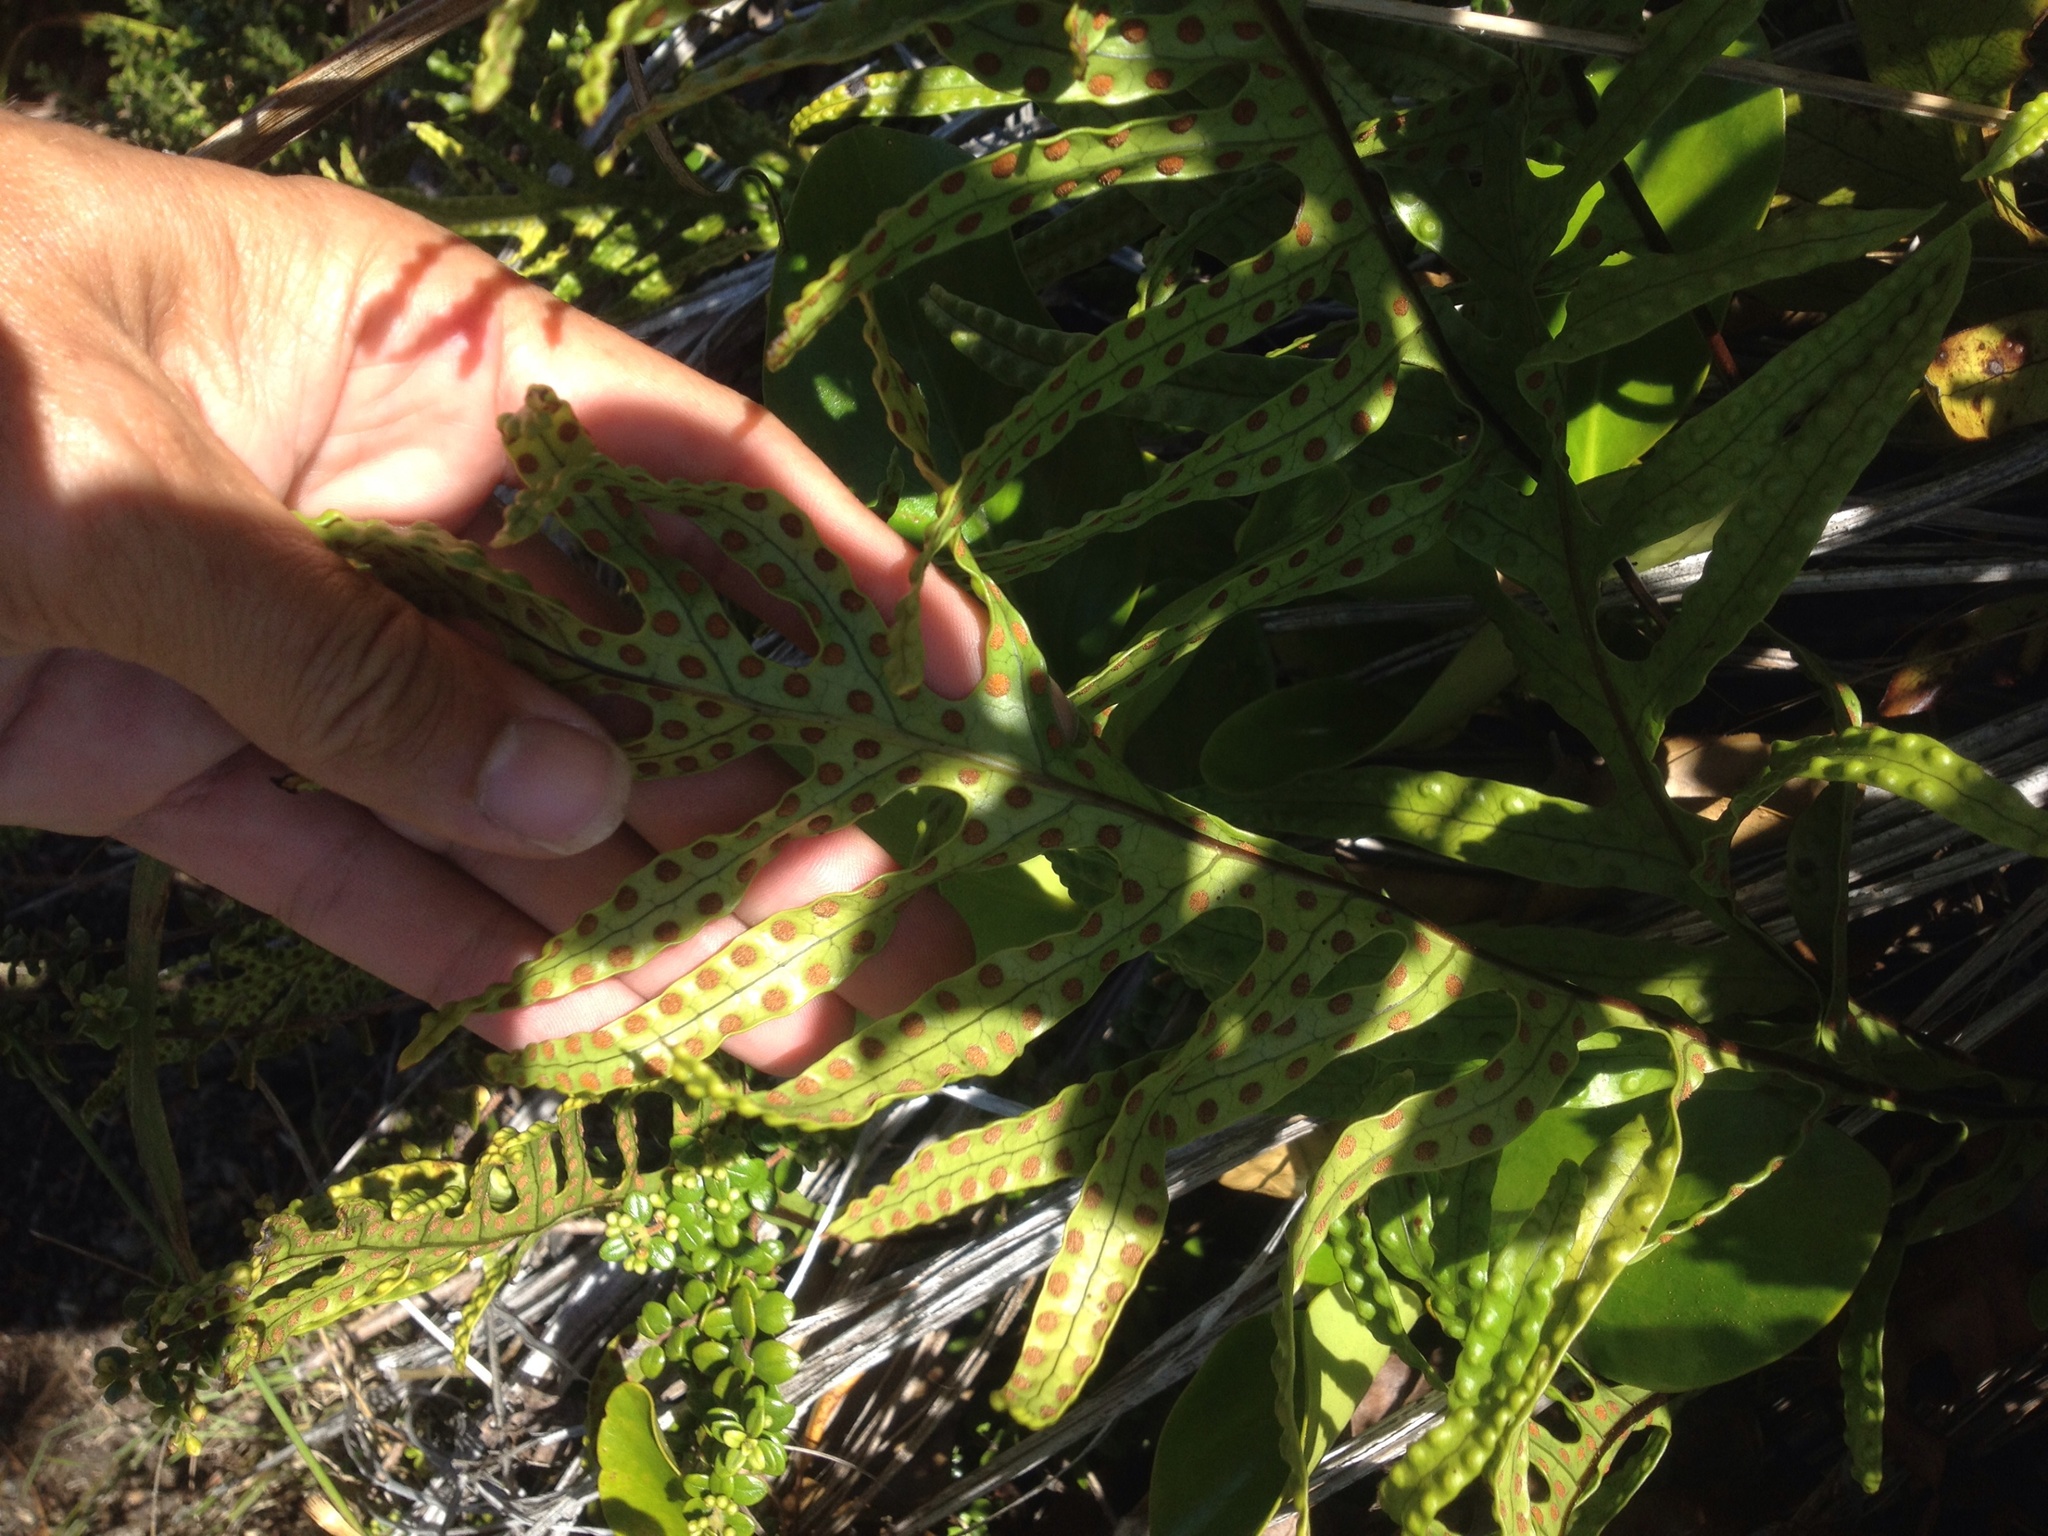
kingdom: Plantae
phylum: Tracheophyta
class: Polypodiopsida
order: Polypodiales
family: Polypodiaceae
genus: Lecanopteris
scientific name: Lecanopteris pustulata
